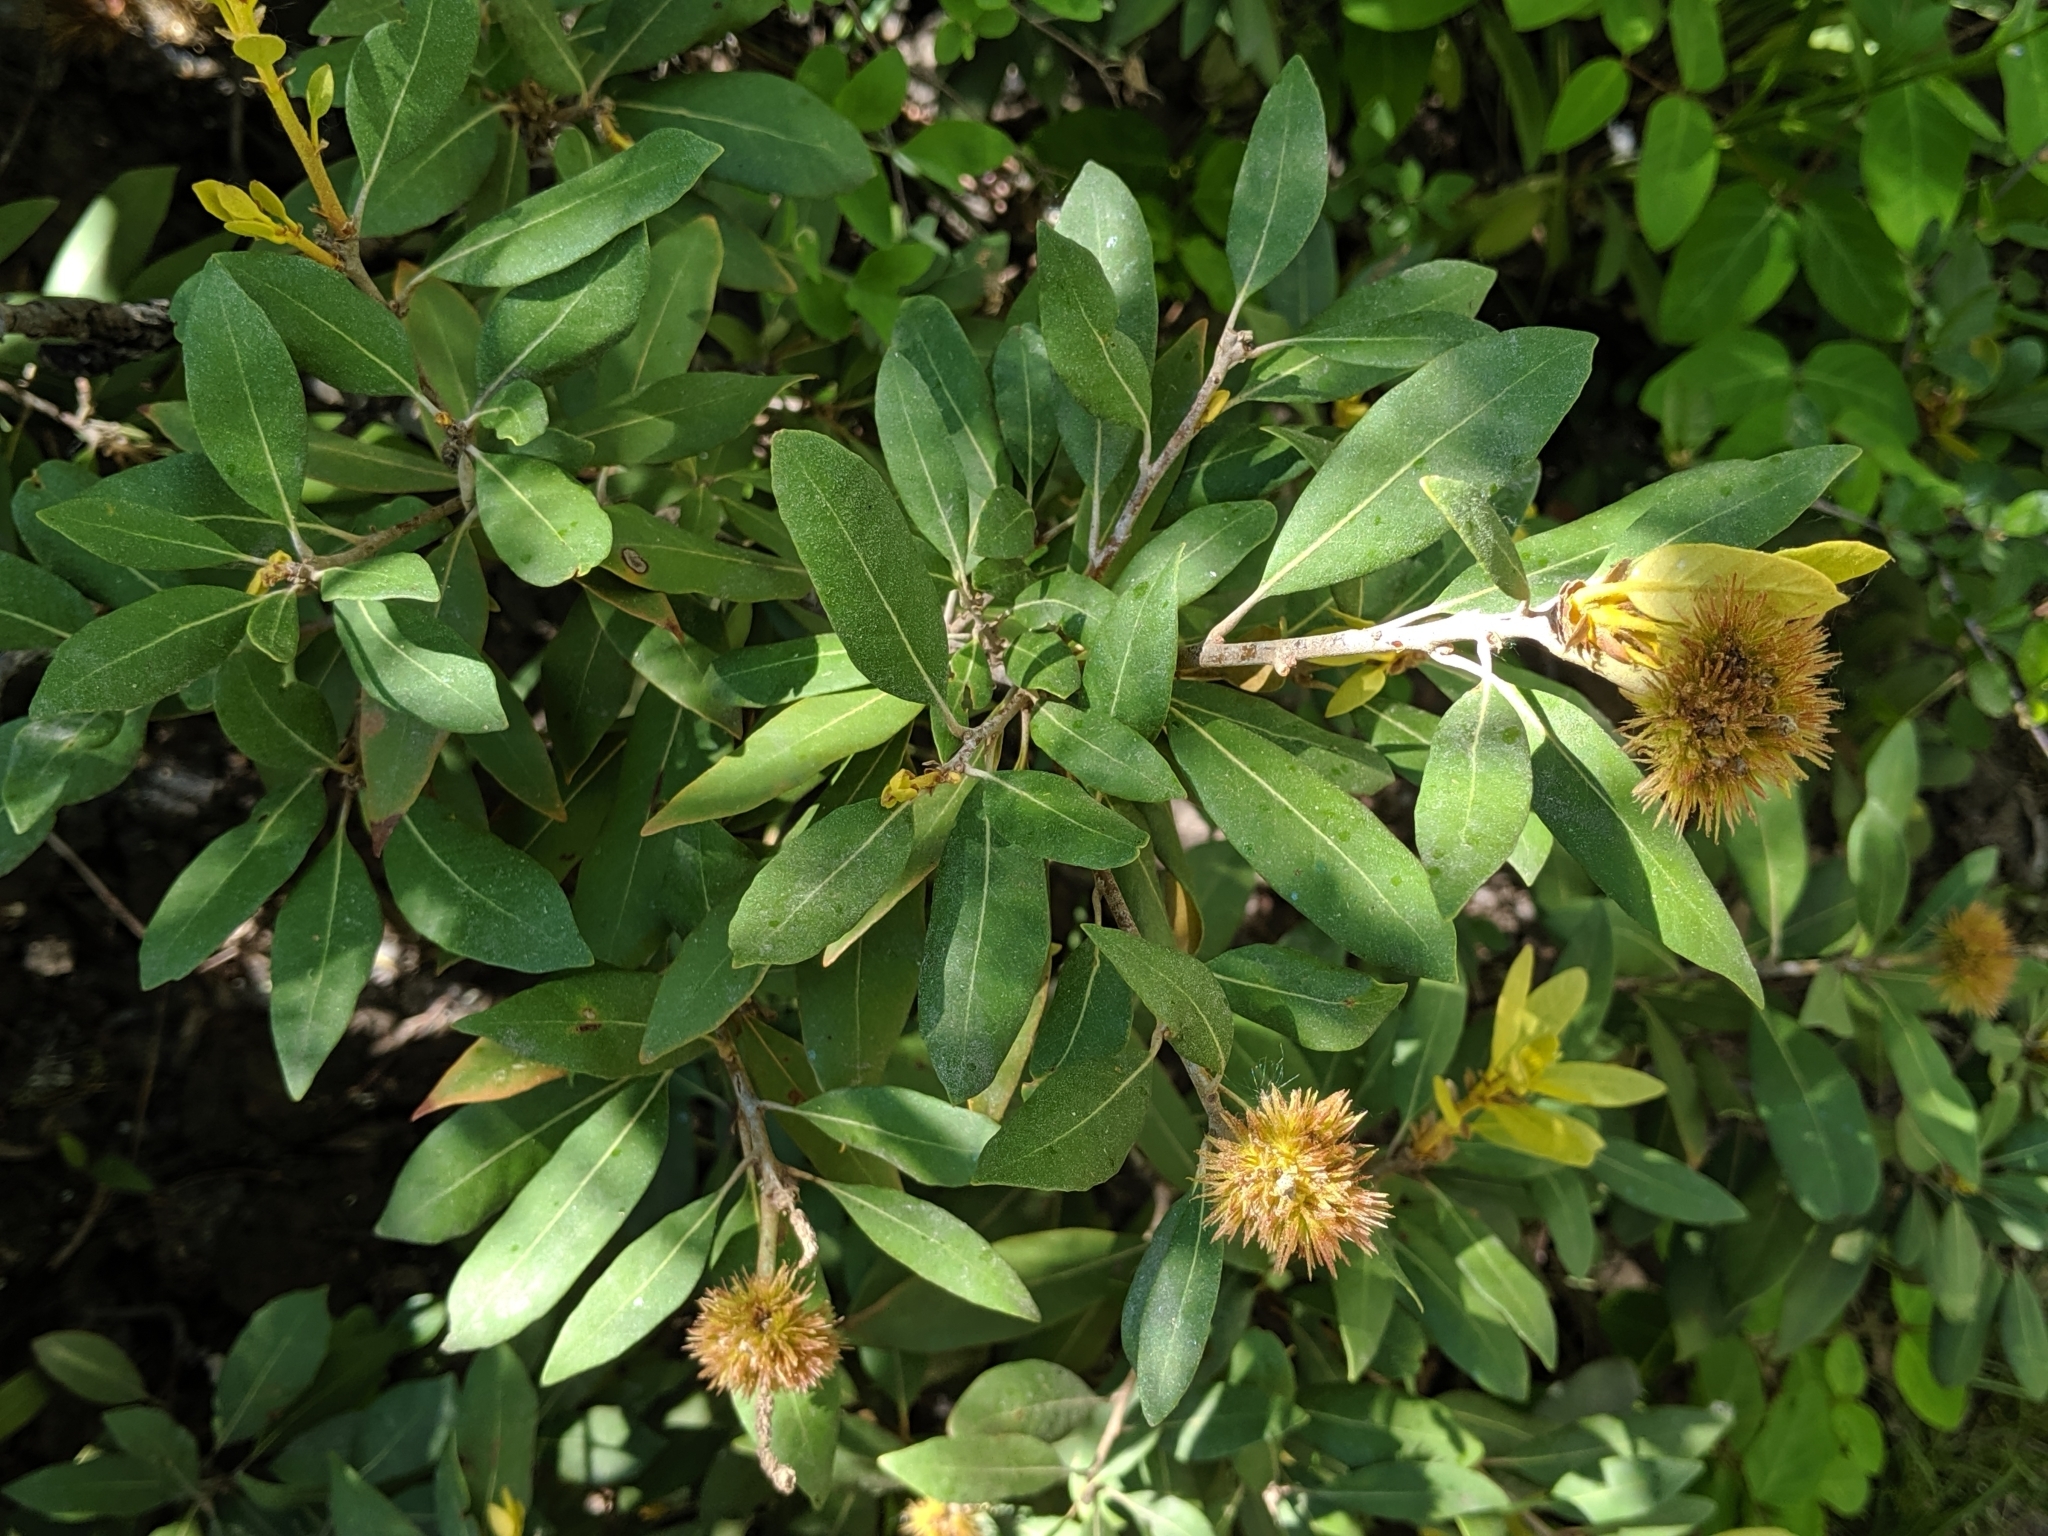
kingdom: Plantae
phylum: Tracheophyta
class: Magnoliopsida
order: Fagales
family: Fagaceae
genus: Chrysolepis
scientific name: Chrysolepis sempervirens
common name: Bush chinquapin
